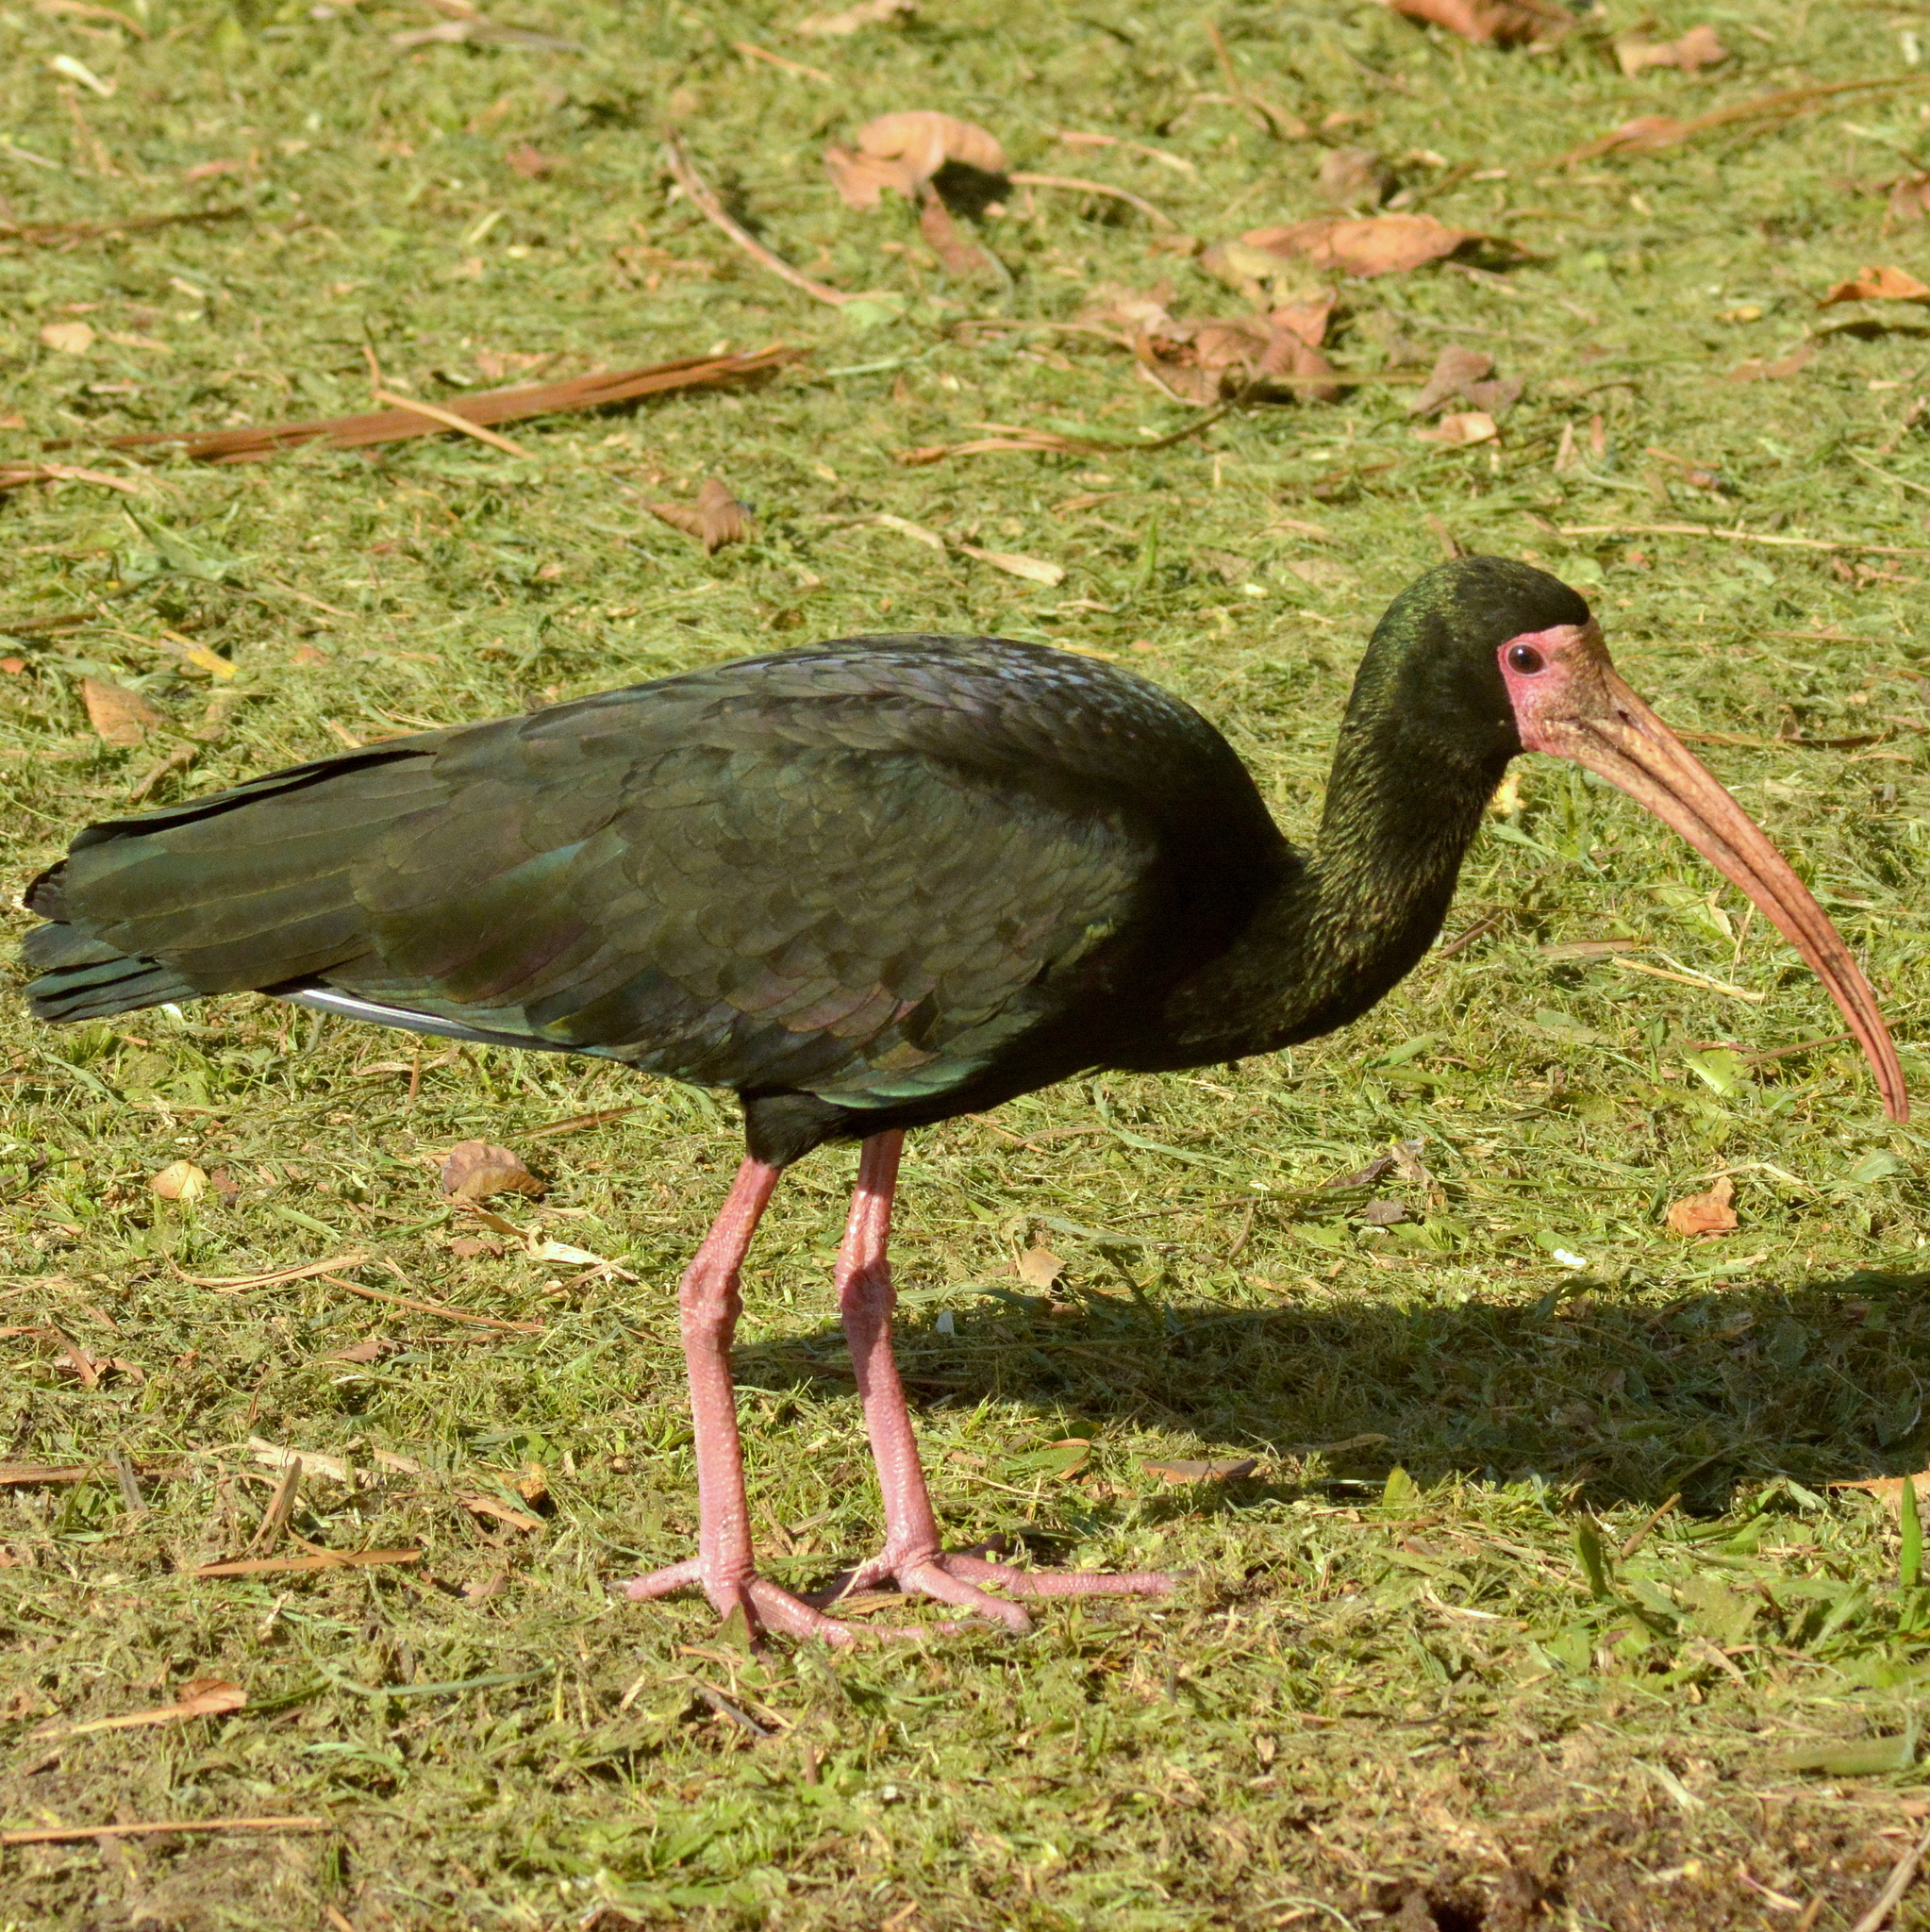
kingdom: Animalia
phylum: Chordata
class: Aves
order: Pelecaniformes
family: Threskiornithidae
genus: Phimosus
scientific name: Phimosus infuscatus
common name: Bare-faced ibis
